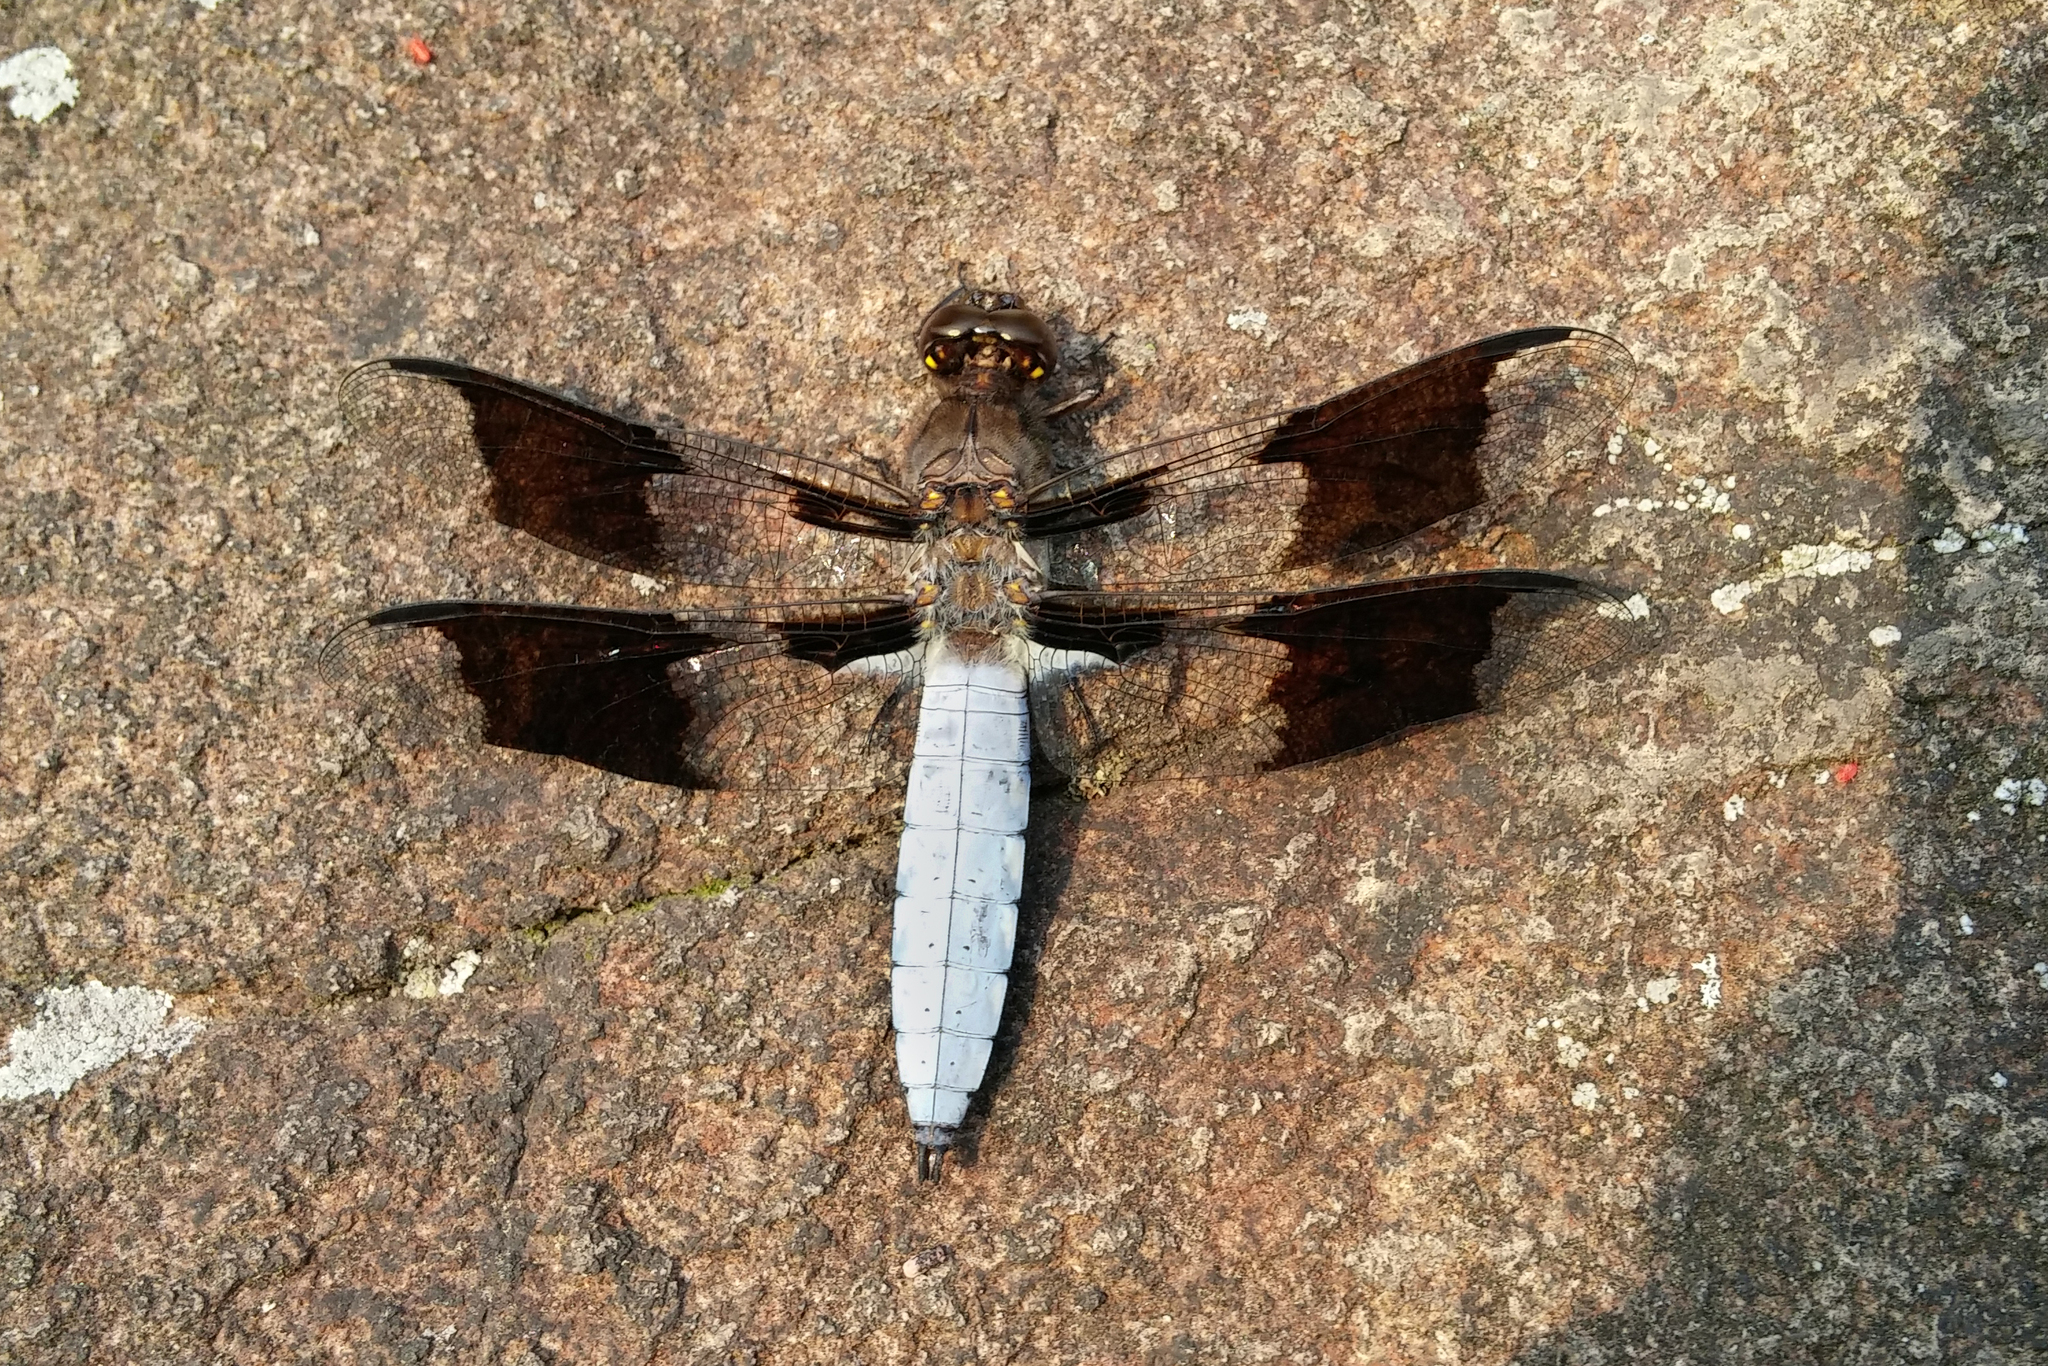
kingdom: Animalia
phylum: Arthropoda
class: Insecta
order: Odonata
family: Libellulidae
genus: Plathemis
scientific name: Plathemis lydia
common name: Common whitetail
